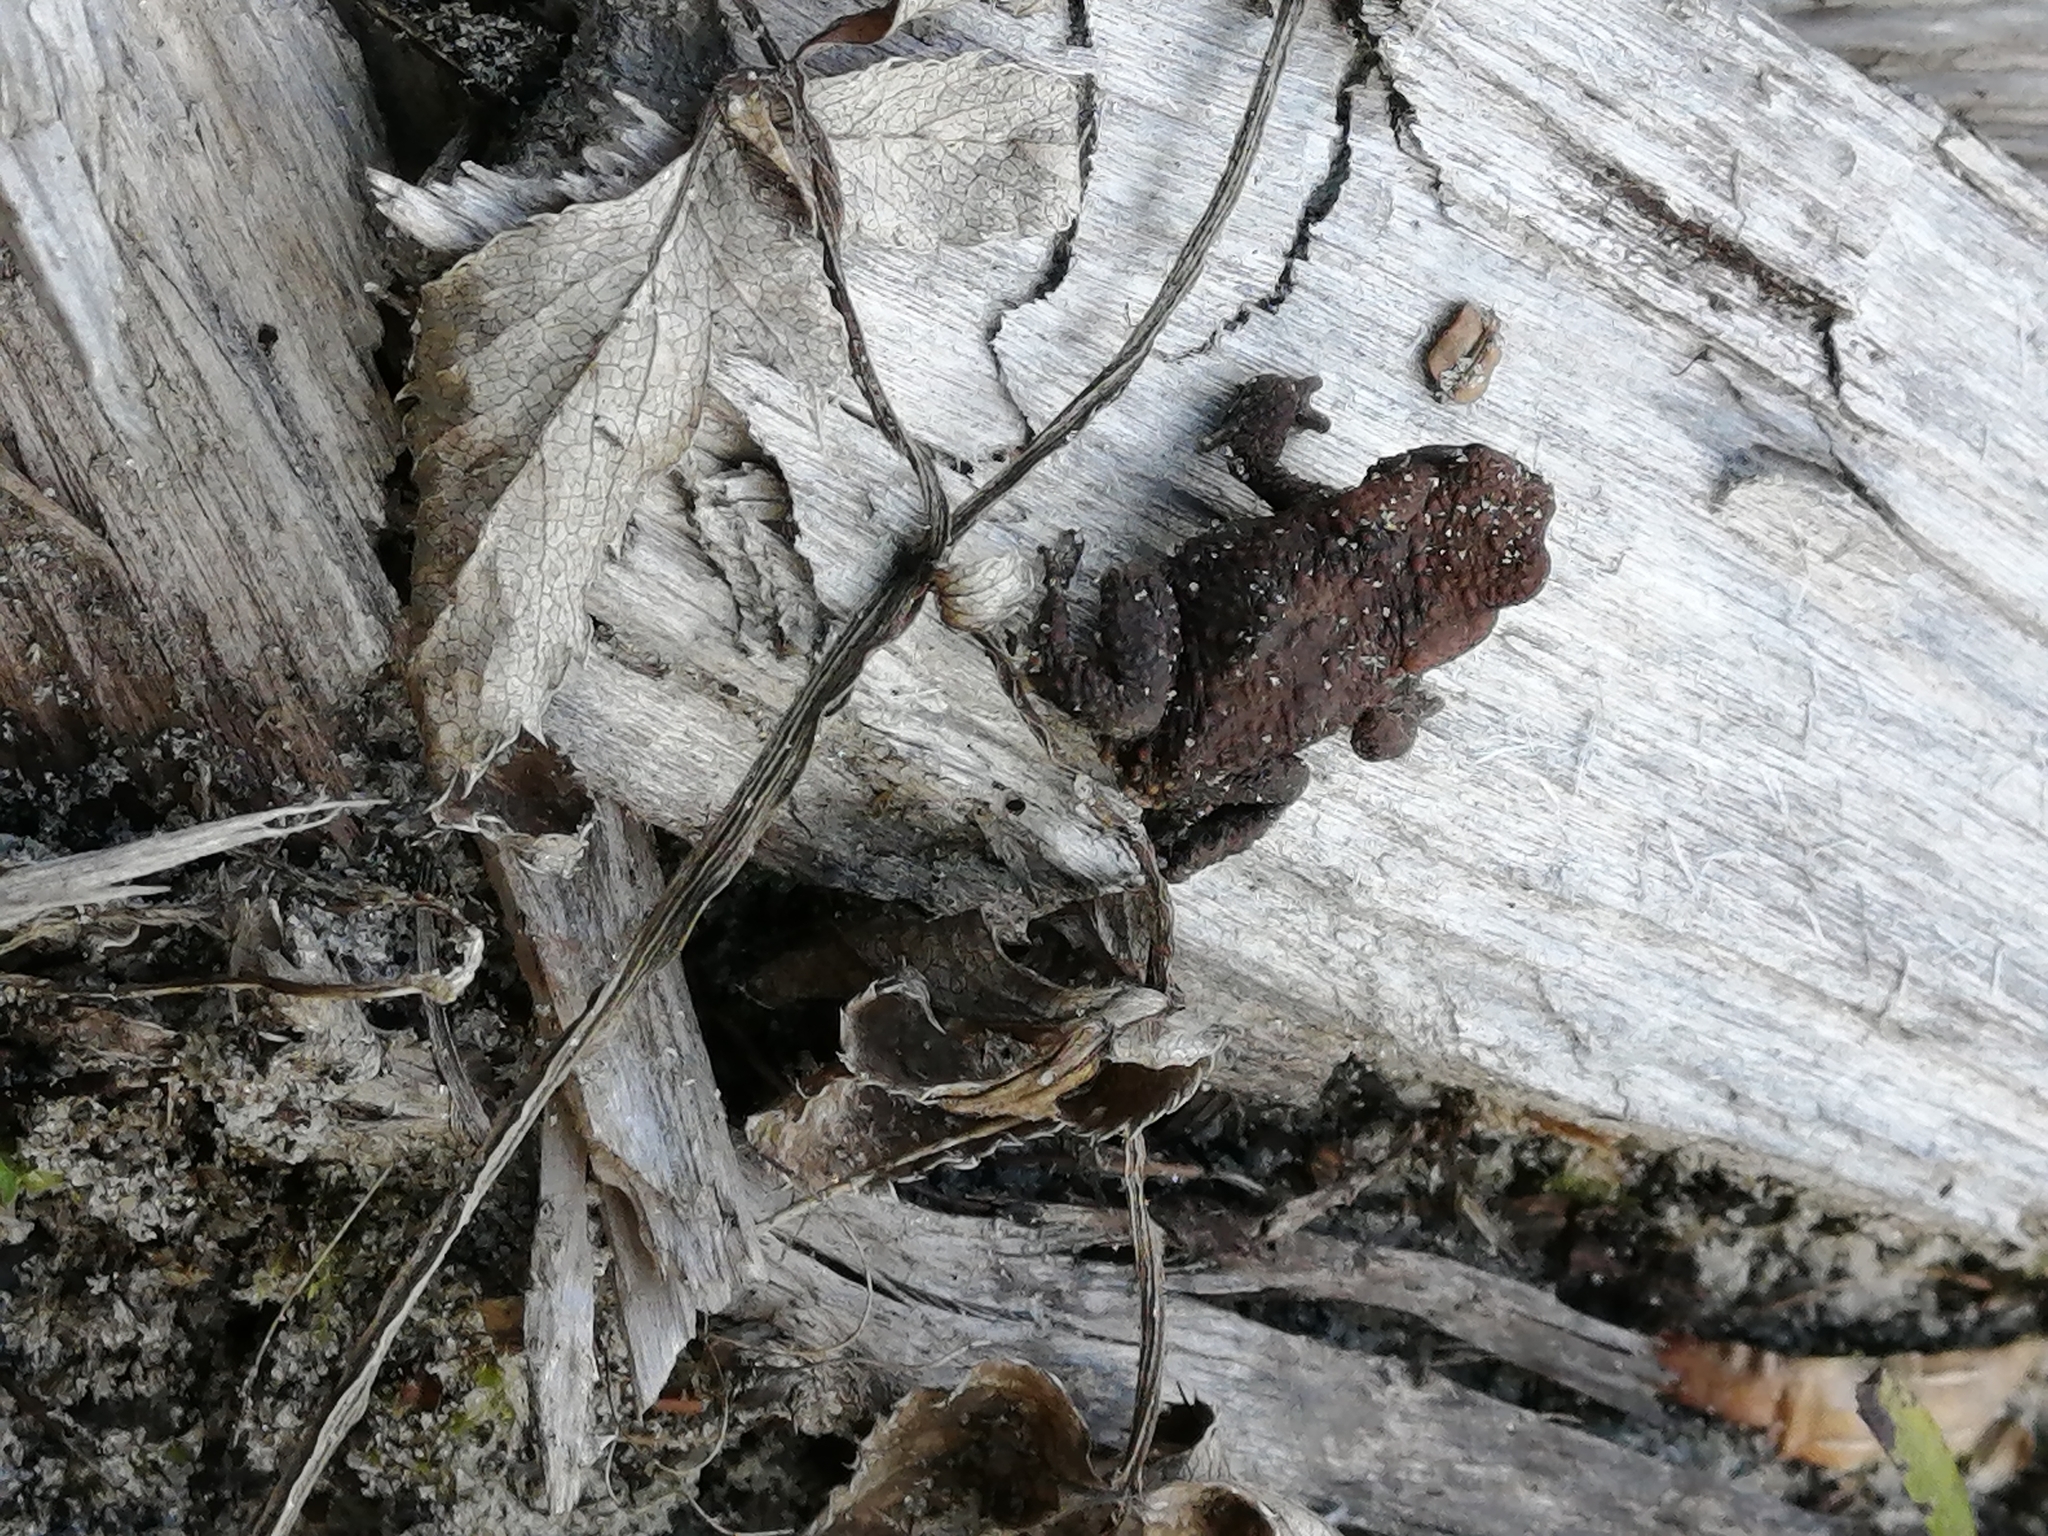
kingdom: Animalia
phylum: Chordata
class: Amphibia
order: Anura
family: Bufonidae
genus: Bufo
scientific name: Bufo bufo
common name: Common toad
